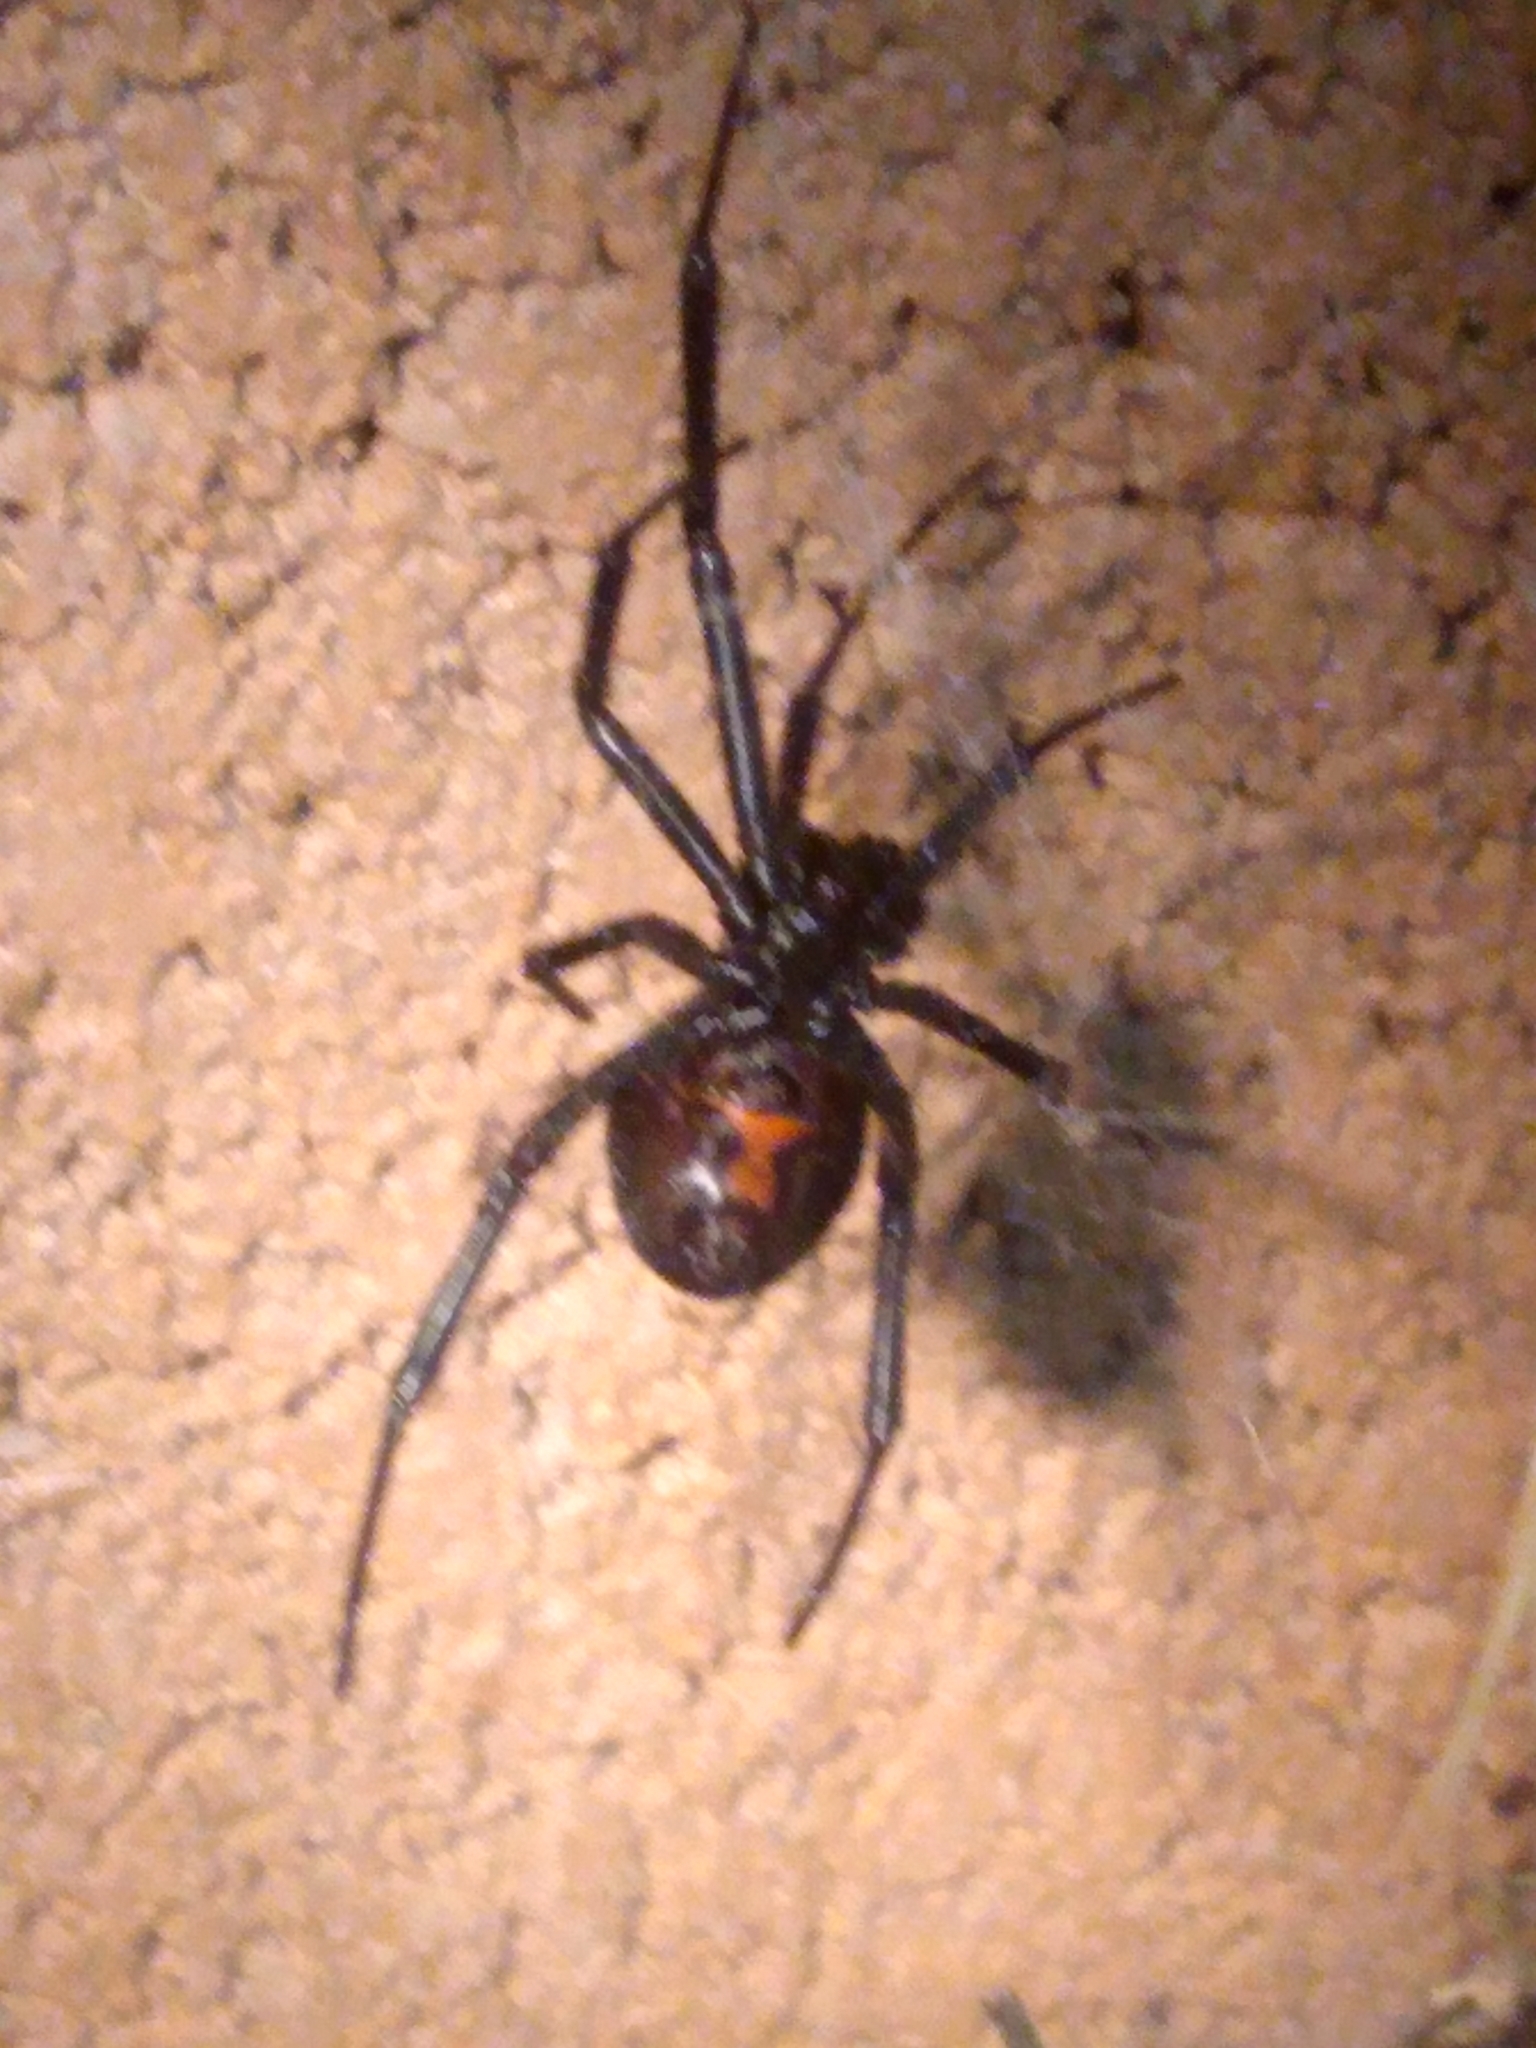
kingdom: Animalia
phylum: Arthropoda
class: Arachnida
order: Araneae
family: Theridiidae
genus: Latrodectus
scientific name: Latrodectus hesperus
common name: Western black widow
